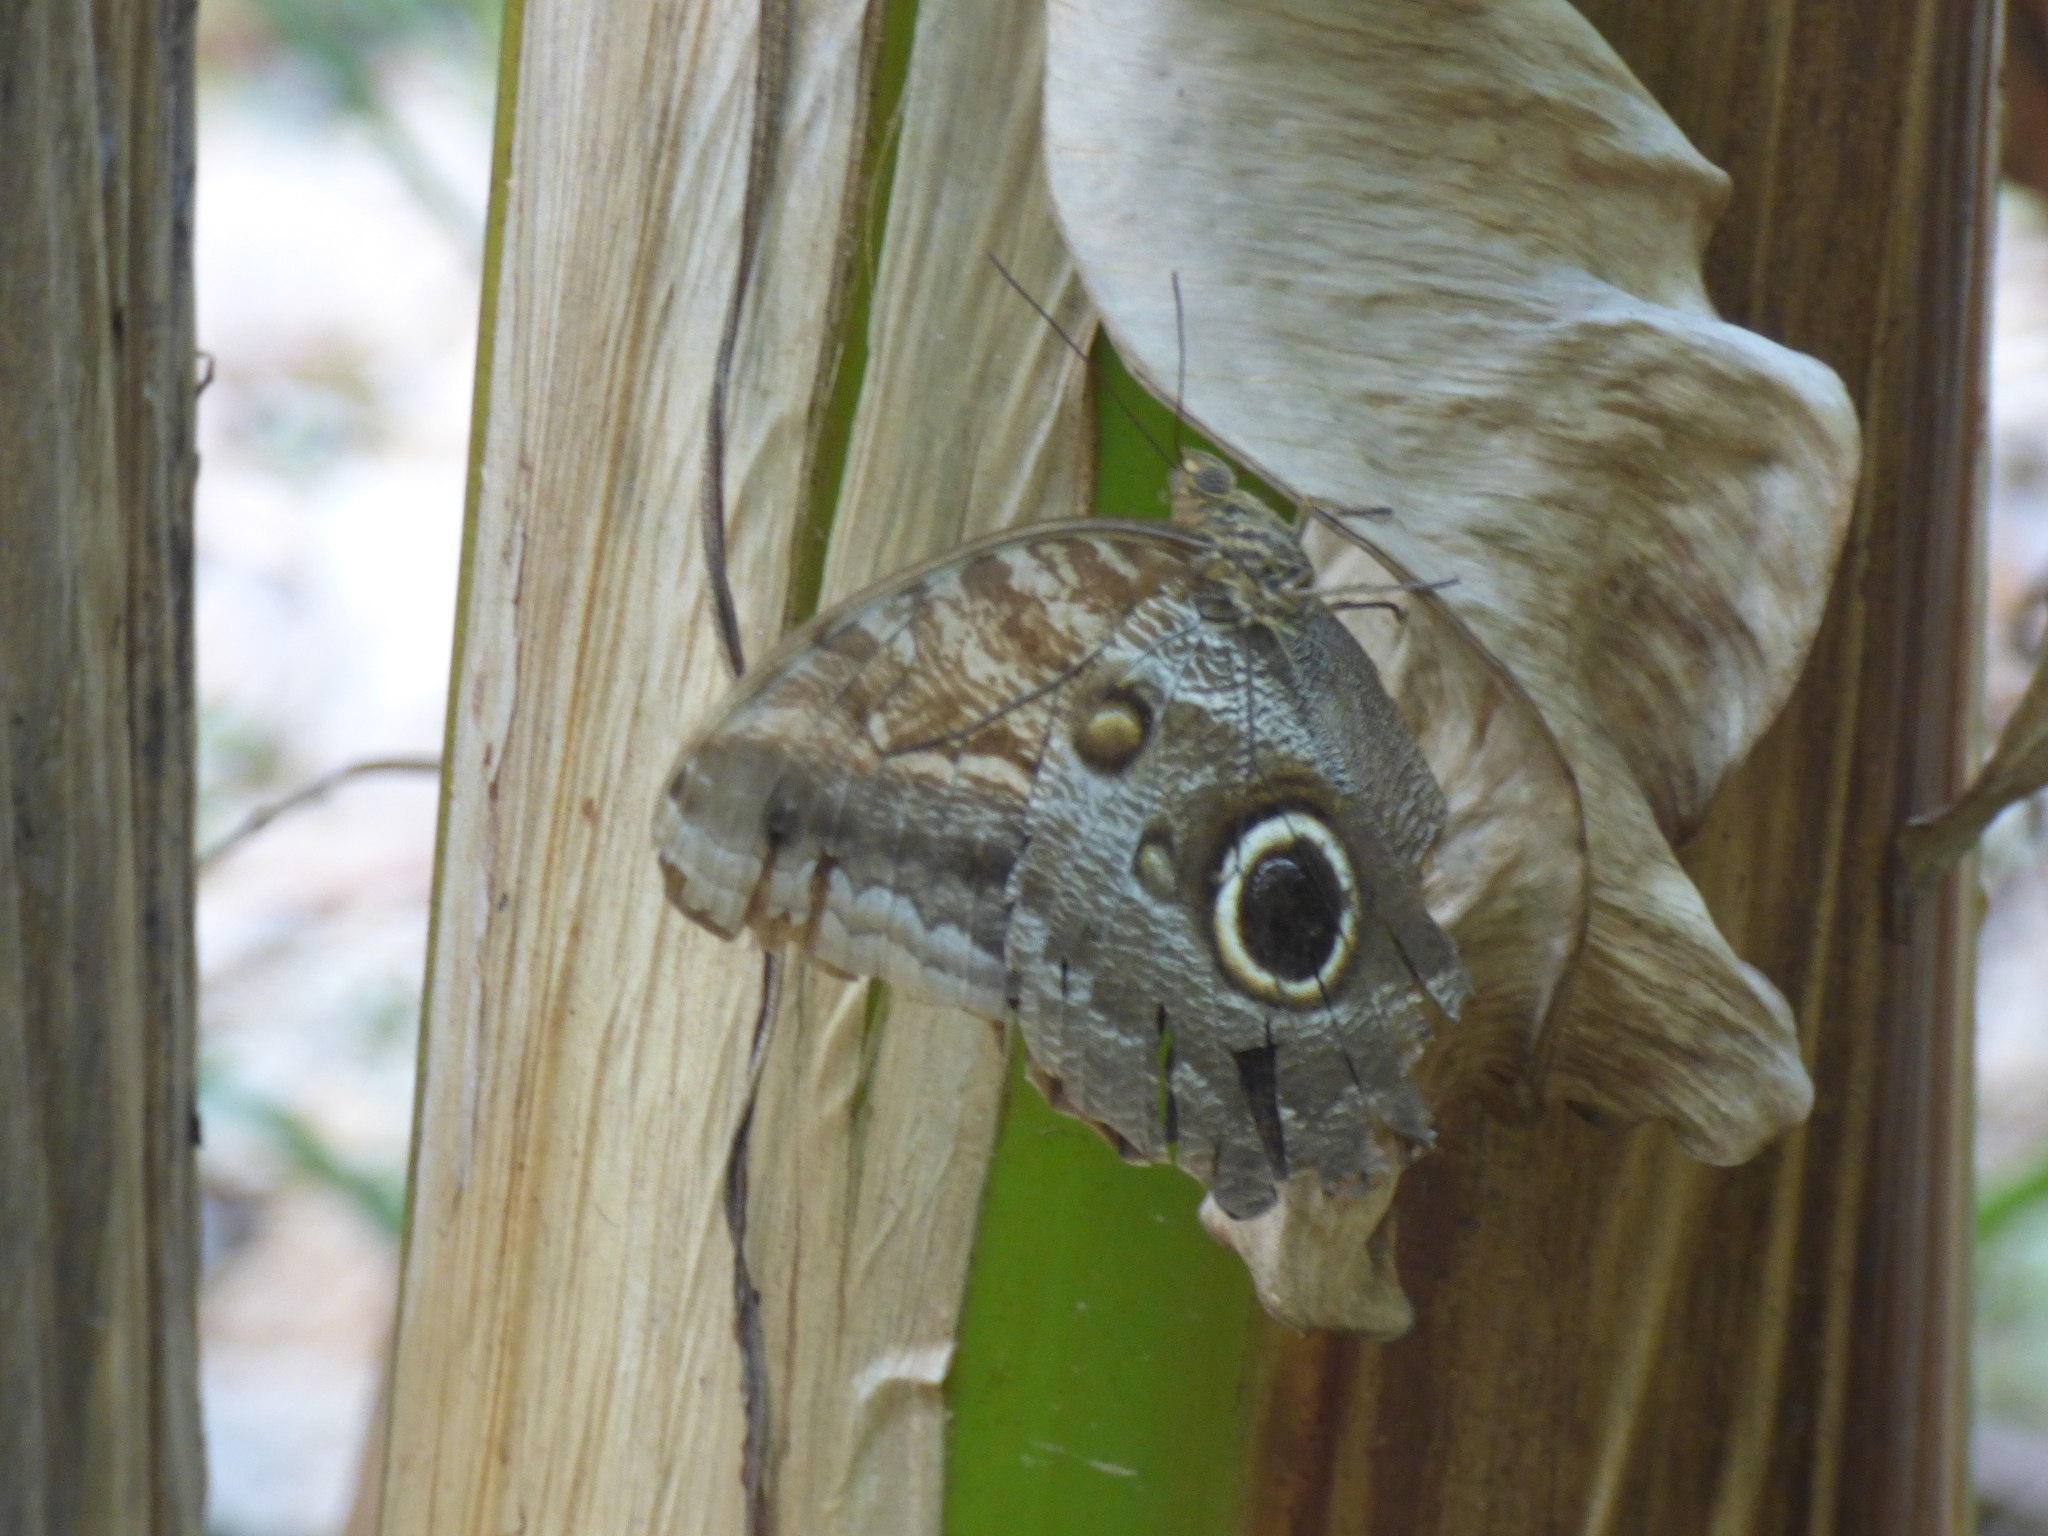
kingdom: Animalia
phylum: Arthropoda
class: Insecta
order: Lepidoptera
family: Nymphalidae
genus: Caligo
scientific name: Caligo illioneus
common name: Dusky owl-butterfly
